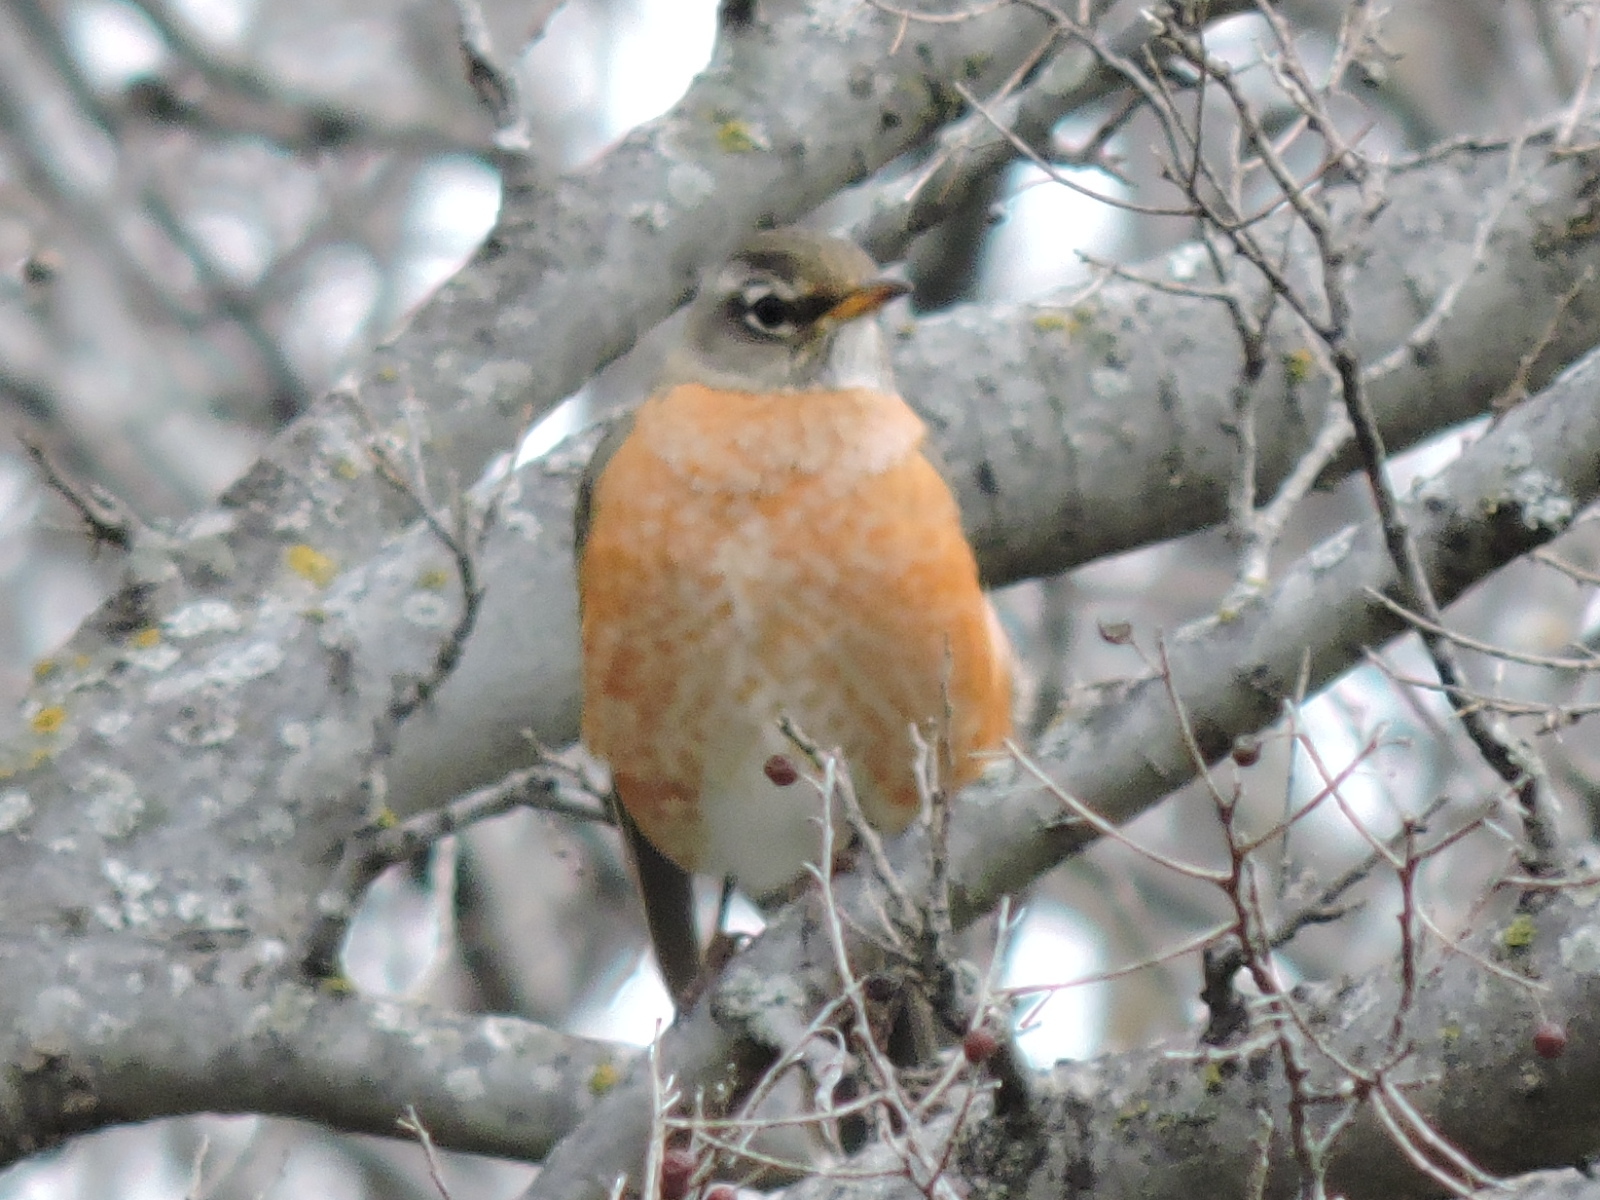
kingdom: Animalia
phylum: Chordata
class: Aves
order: Passeriformes
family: Turdidae
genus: Turdus
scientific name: Turdus migratorius
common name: American robin
